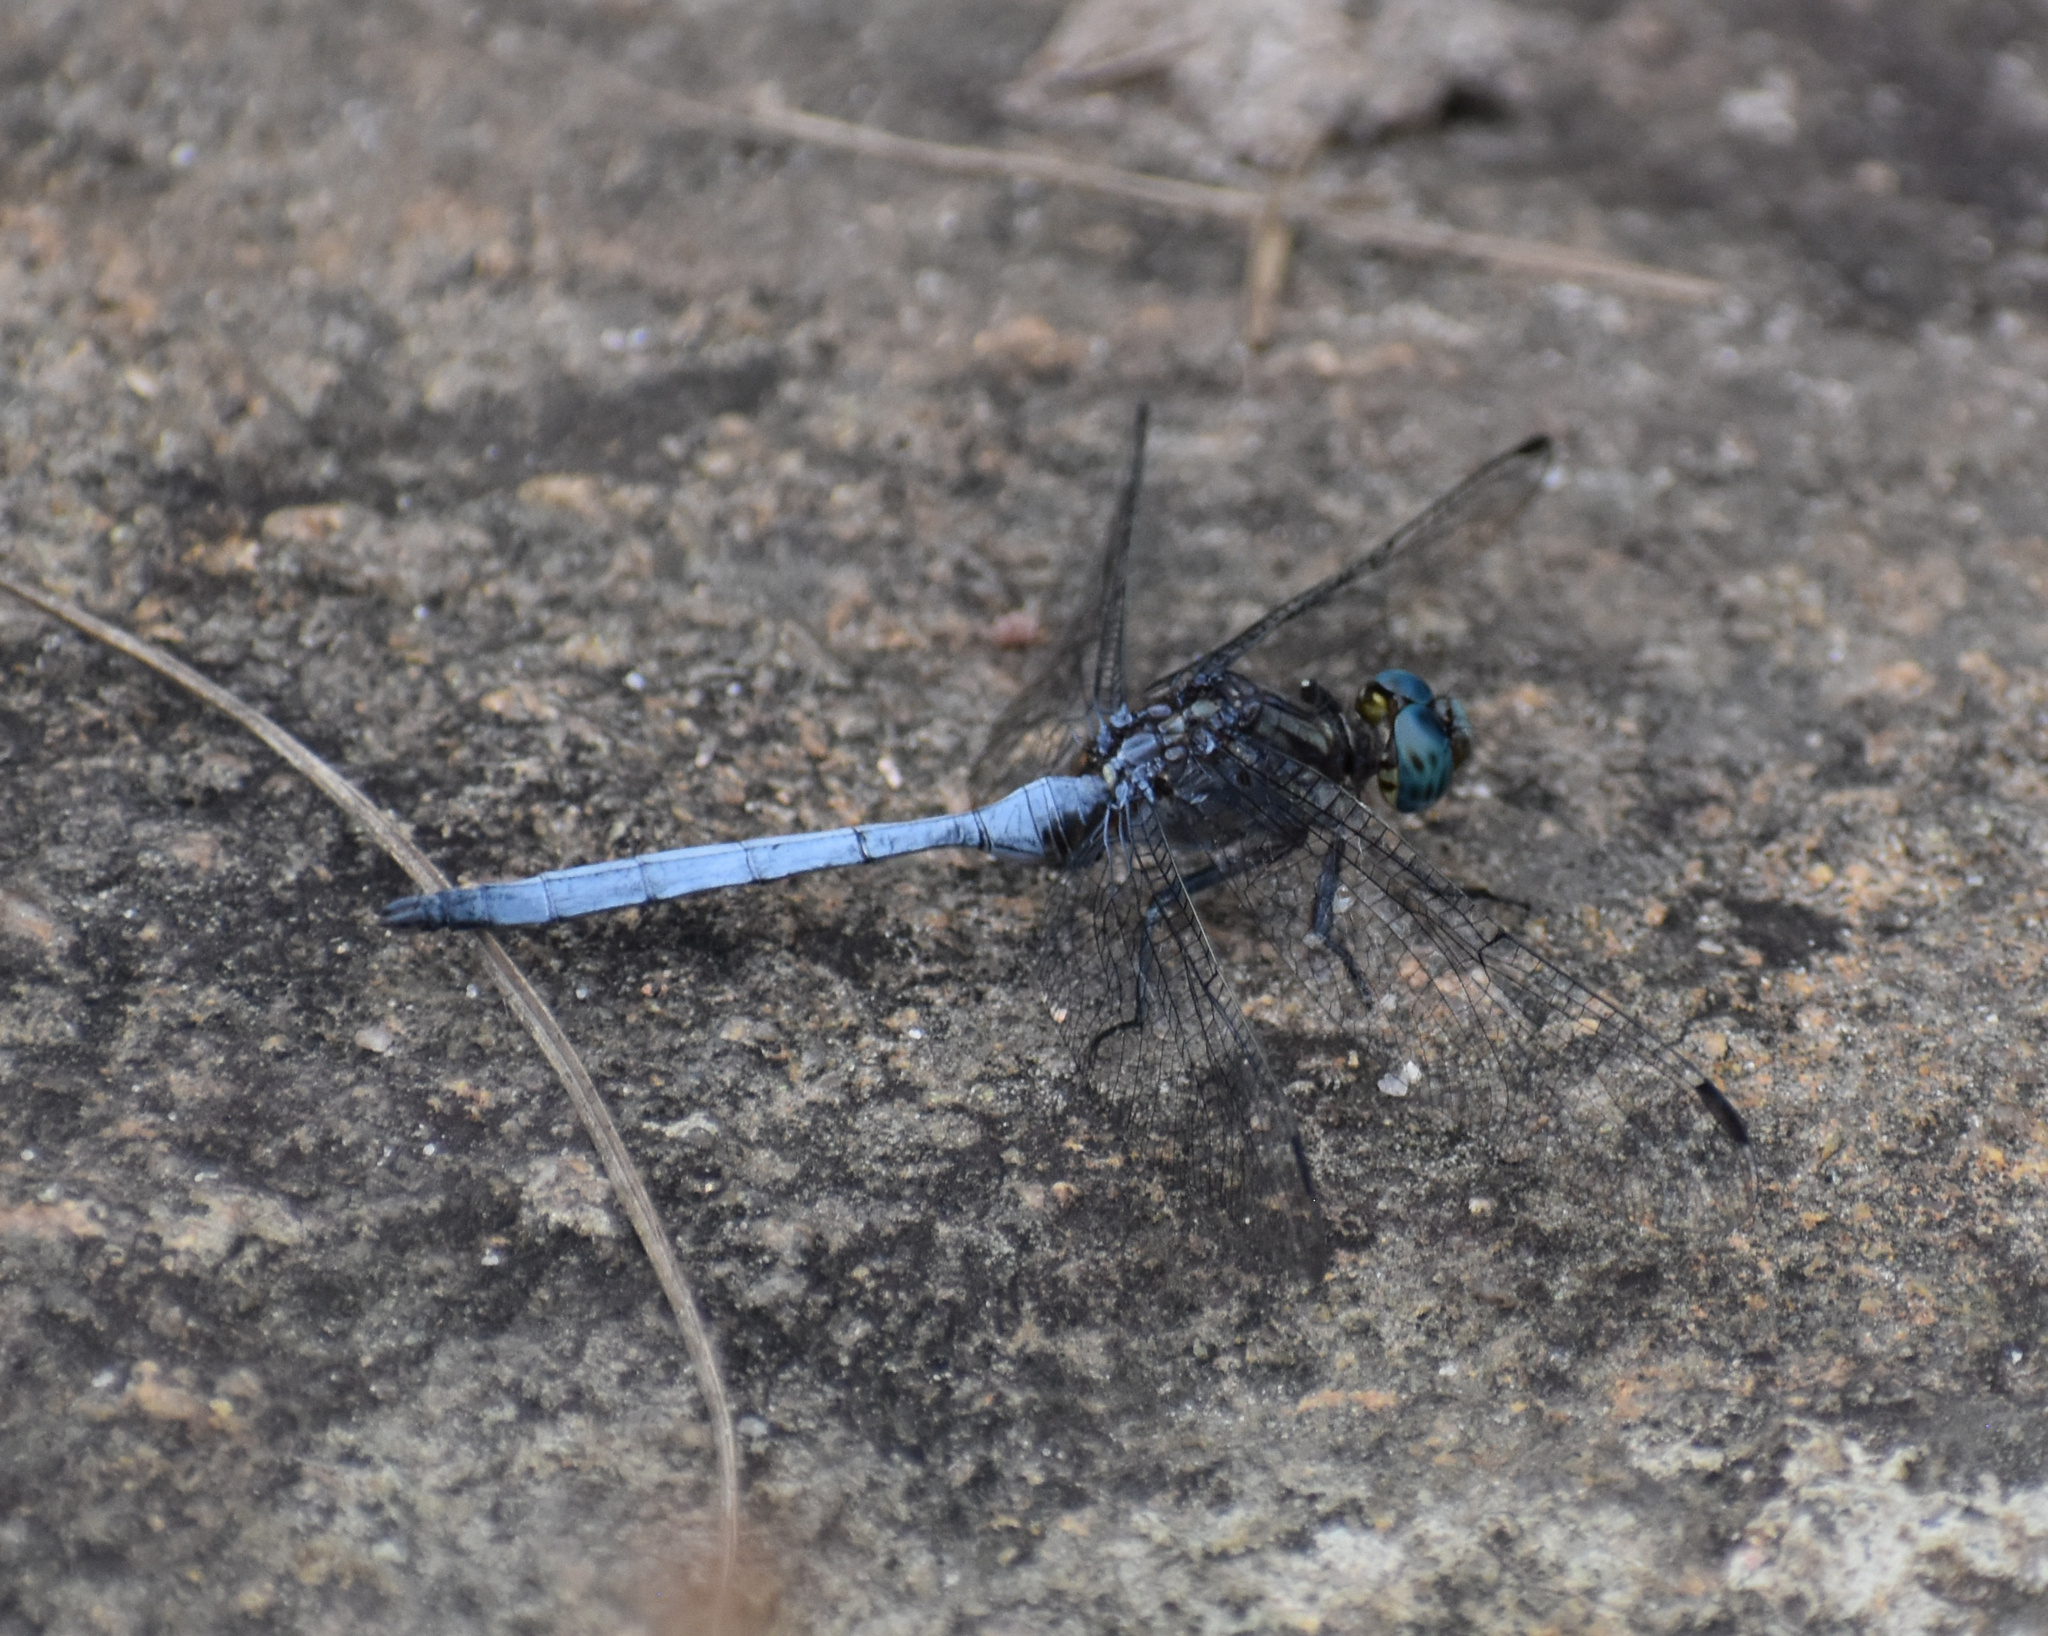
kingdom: Animalia
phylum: Arthropoda
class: Insecta
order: Odonata
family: Libellulidae
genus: Orthetrum
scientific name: Orthetrum julia
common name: Julia skimmer
